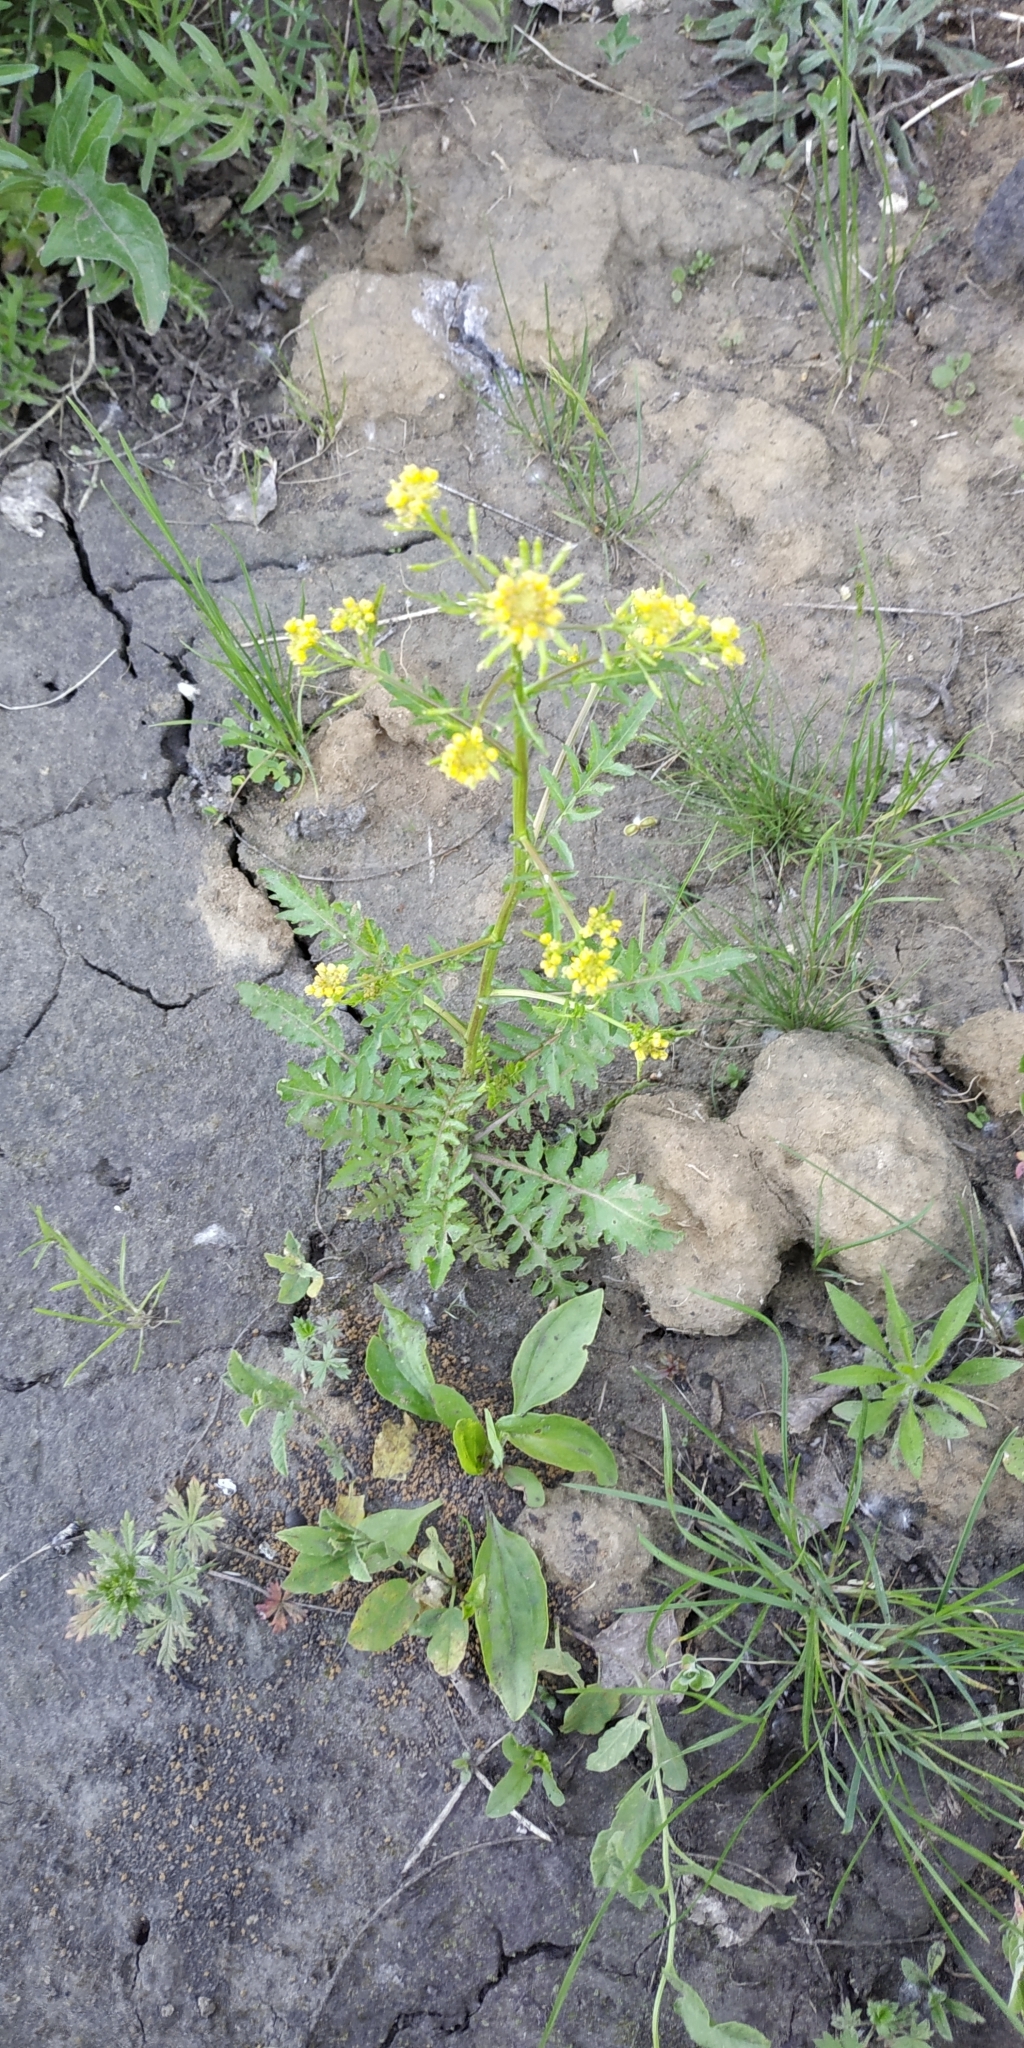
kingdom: Plantae
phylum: Tracheophyta
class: Magnoliopsida
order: Brassicales
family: Brassicaceae
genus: Rorippa
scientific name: Rorippa palustris
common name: Marsh yellow-cress
